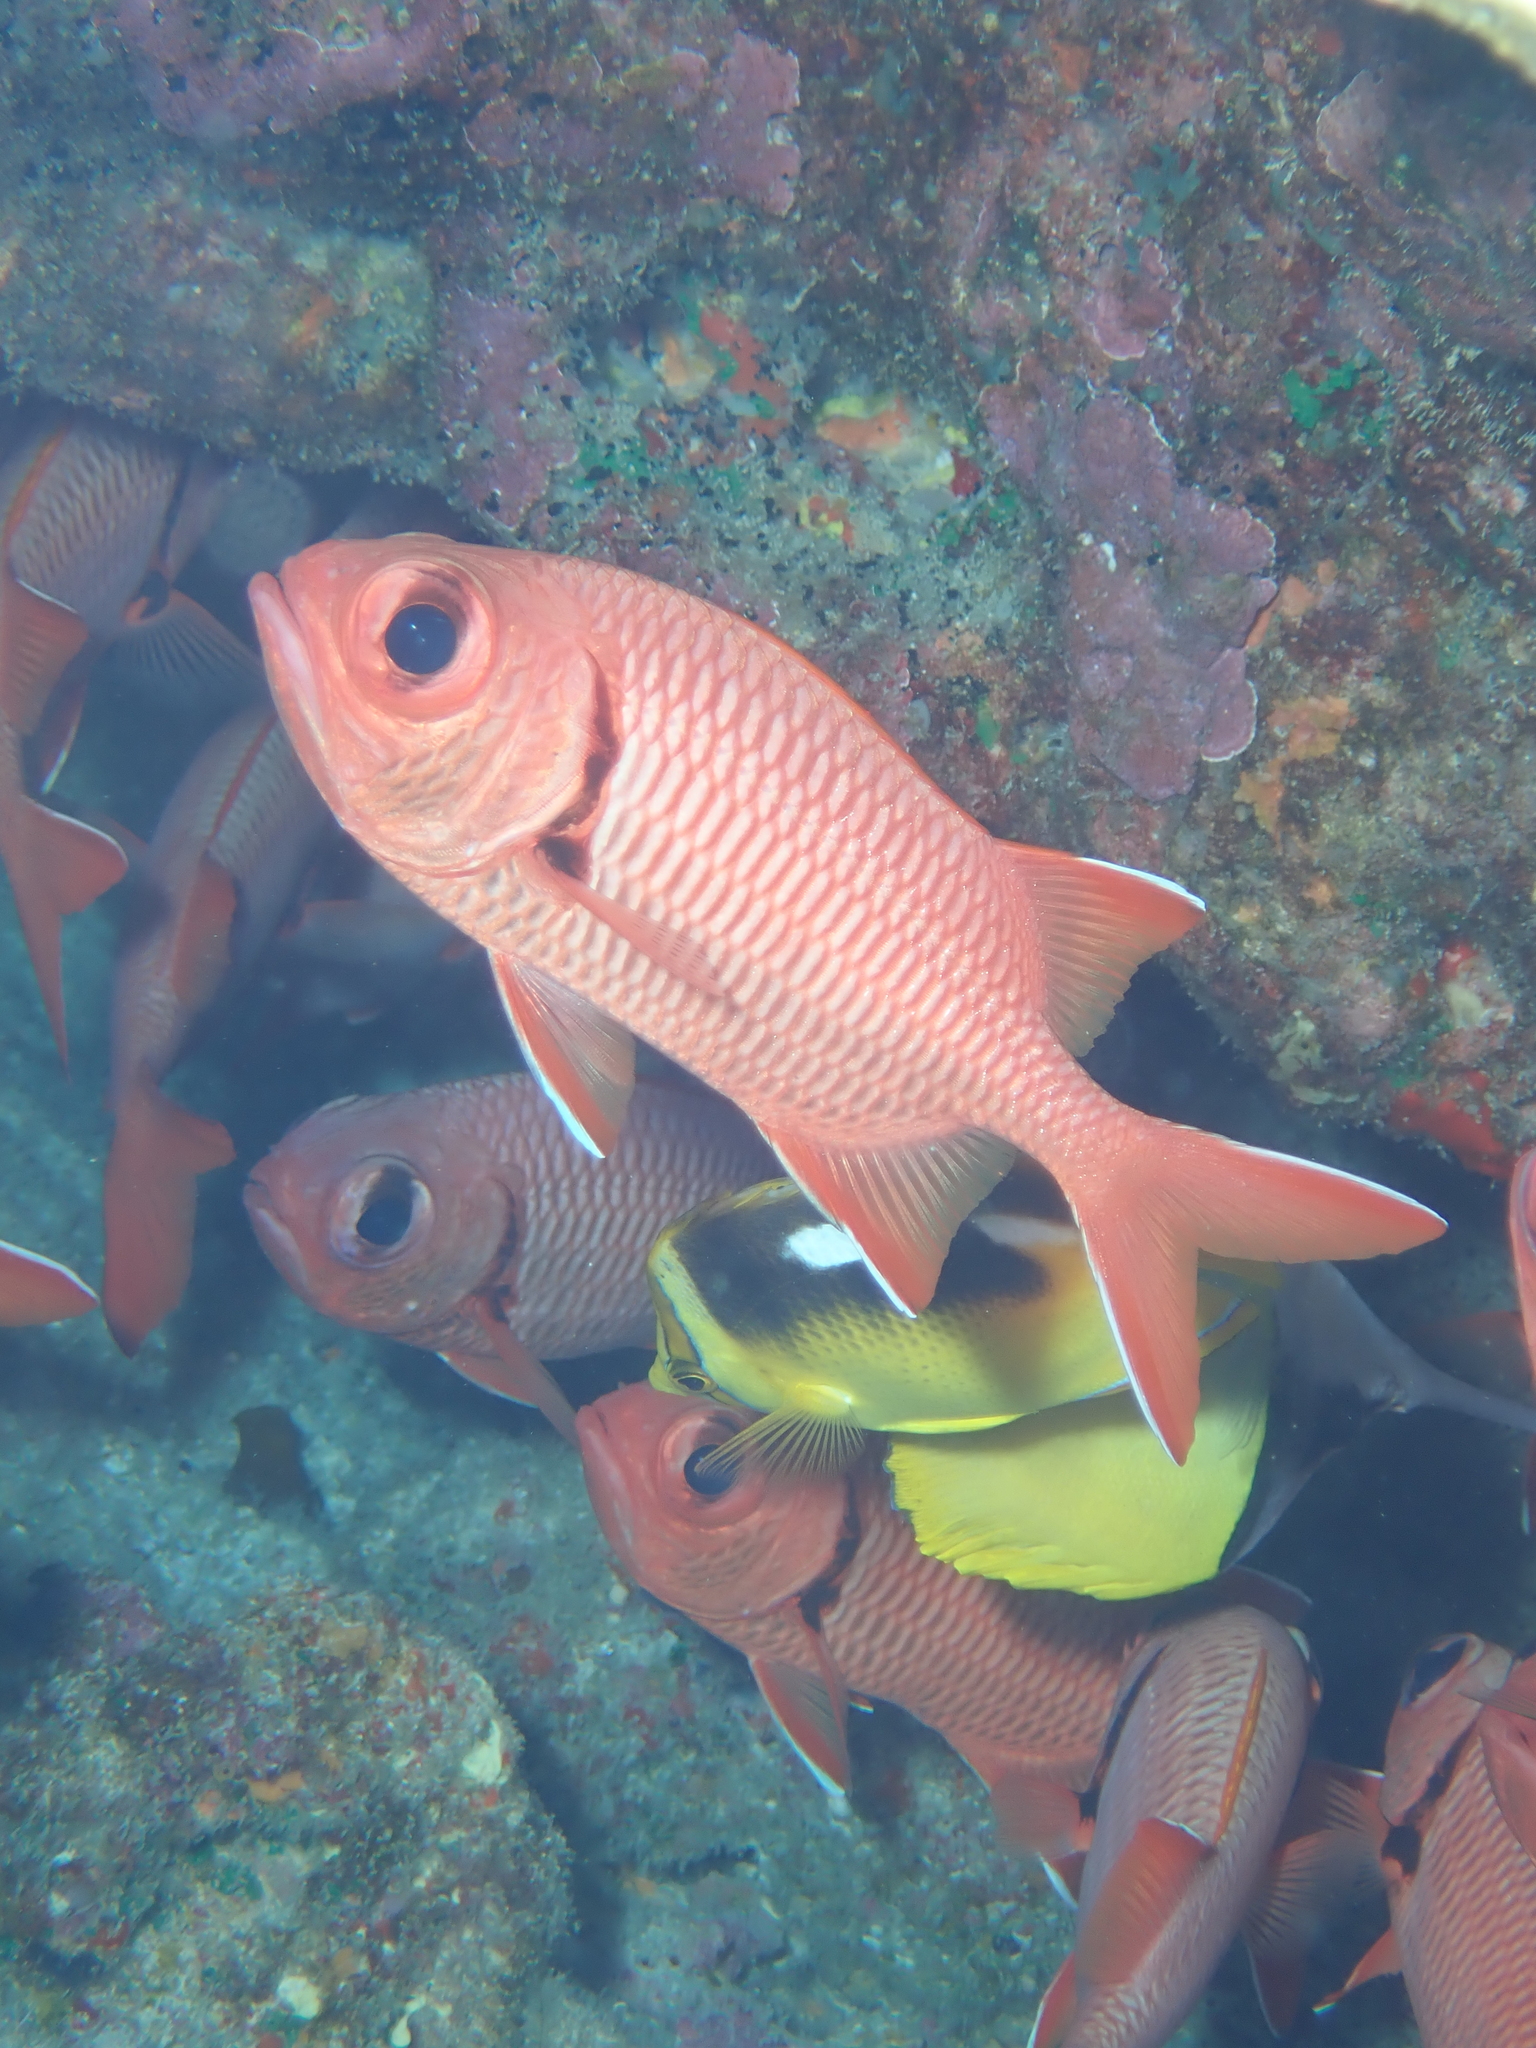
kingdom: Animalia
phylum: Chordata
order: Beryciformes
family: Holocentridae
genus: Myripristis
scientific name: Myripristis berndti
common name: Bigscale soldierfish
